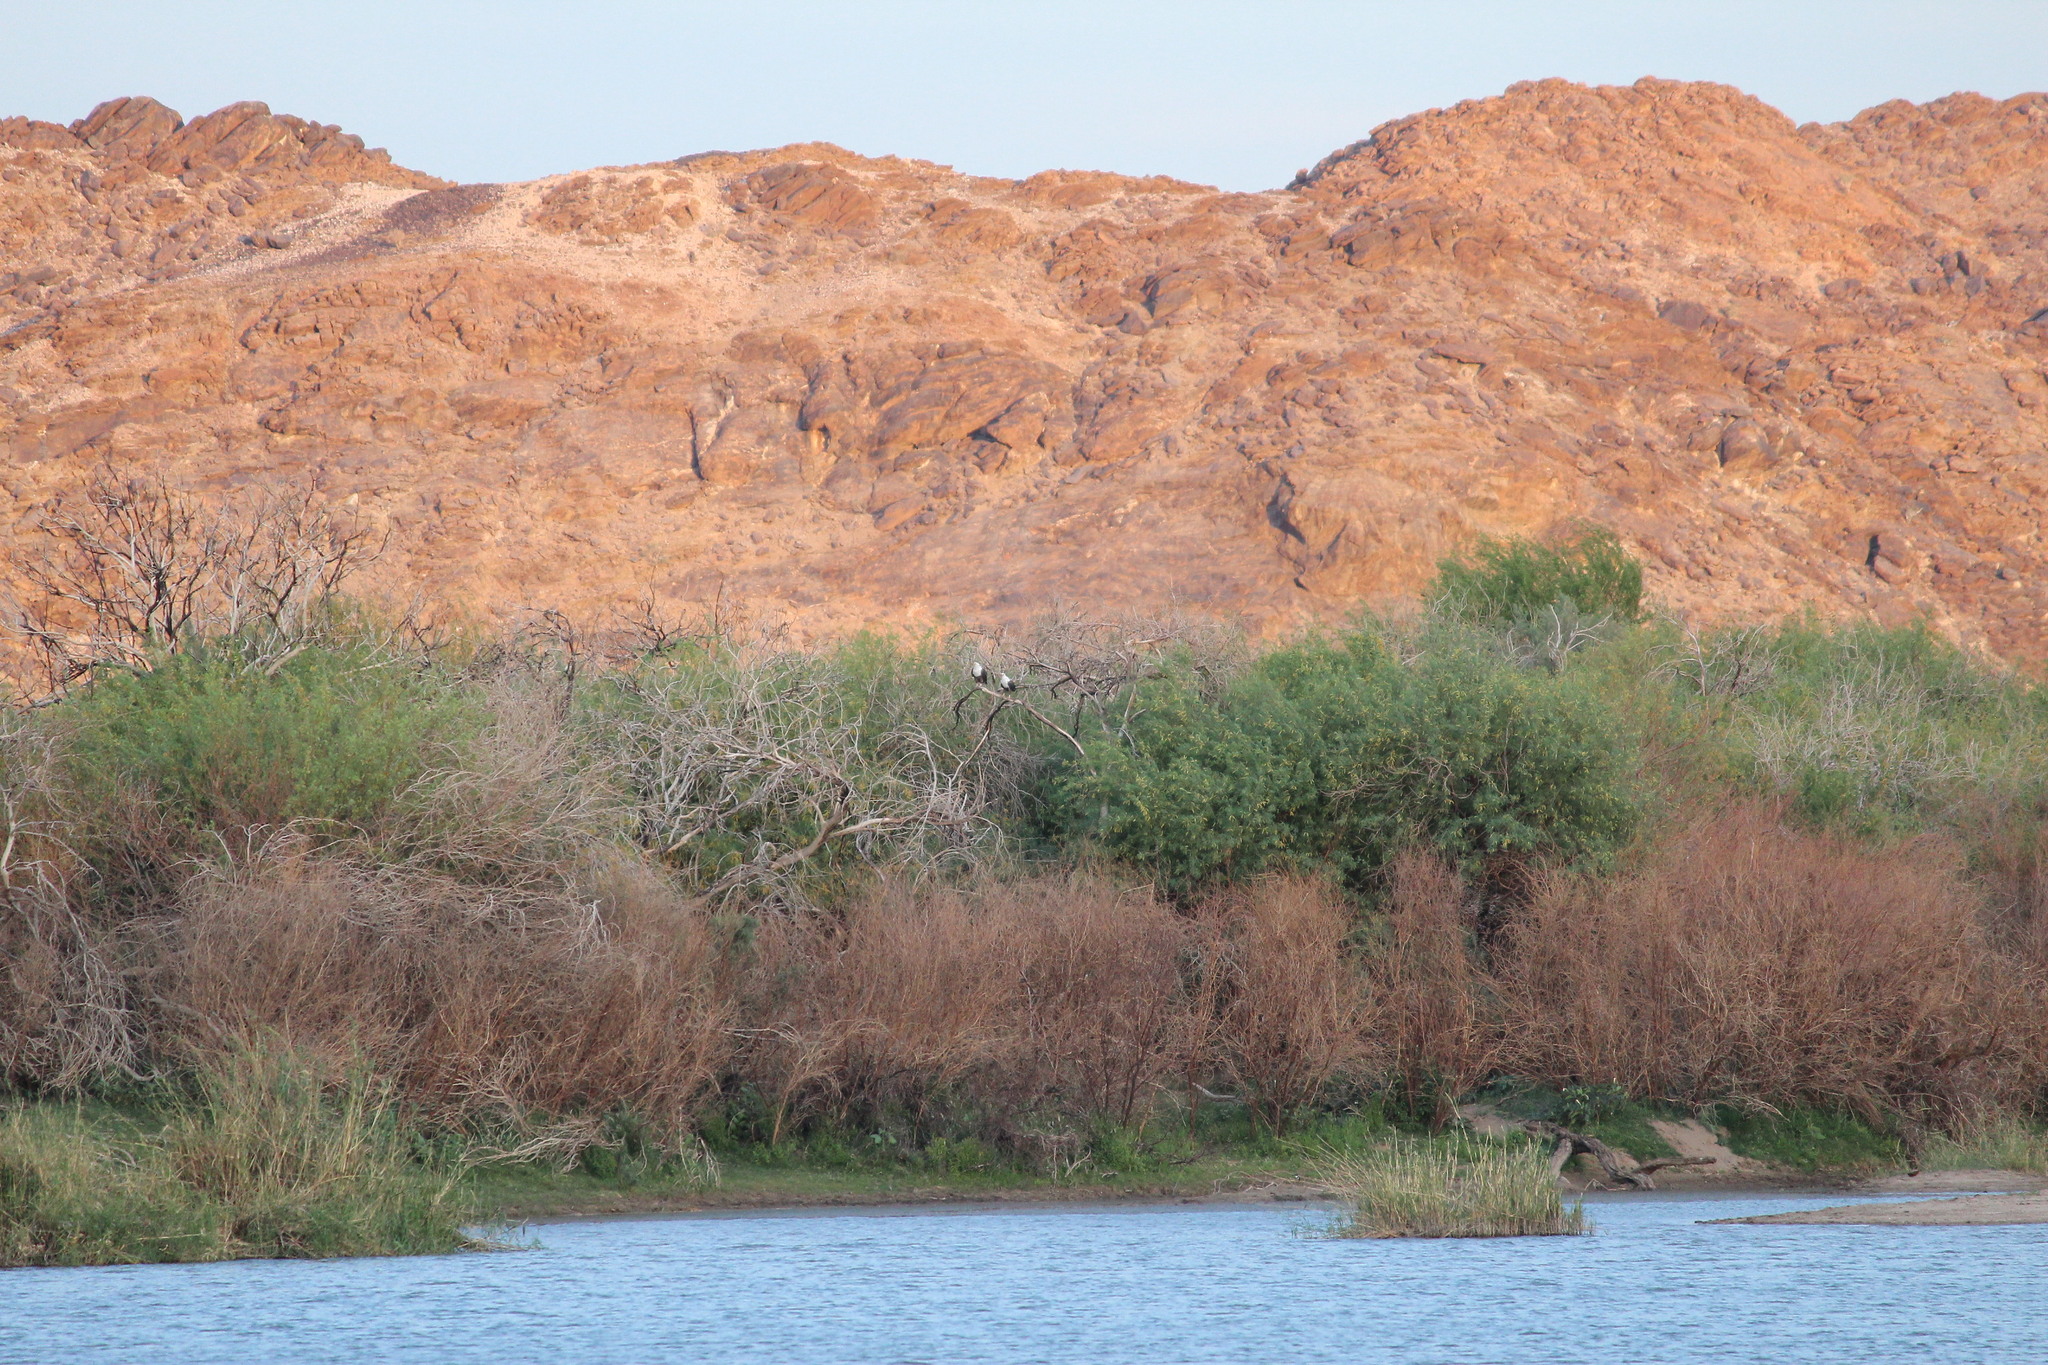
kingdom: Animalia
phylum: Chordata
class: Aves
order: Accipitriformes
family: Accipitridae
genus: Haliaeetus
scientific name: Haliaeetus vocifer
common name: African fish eagle
